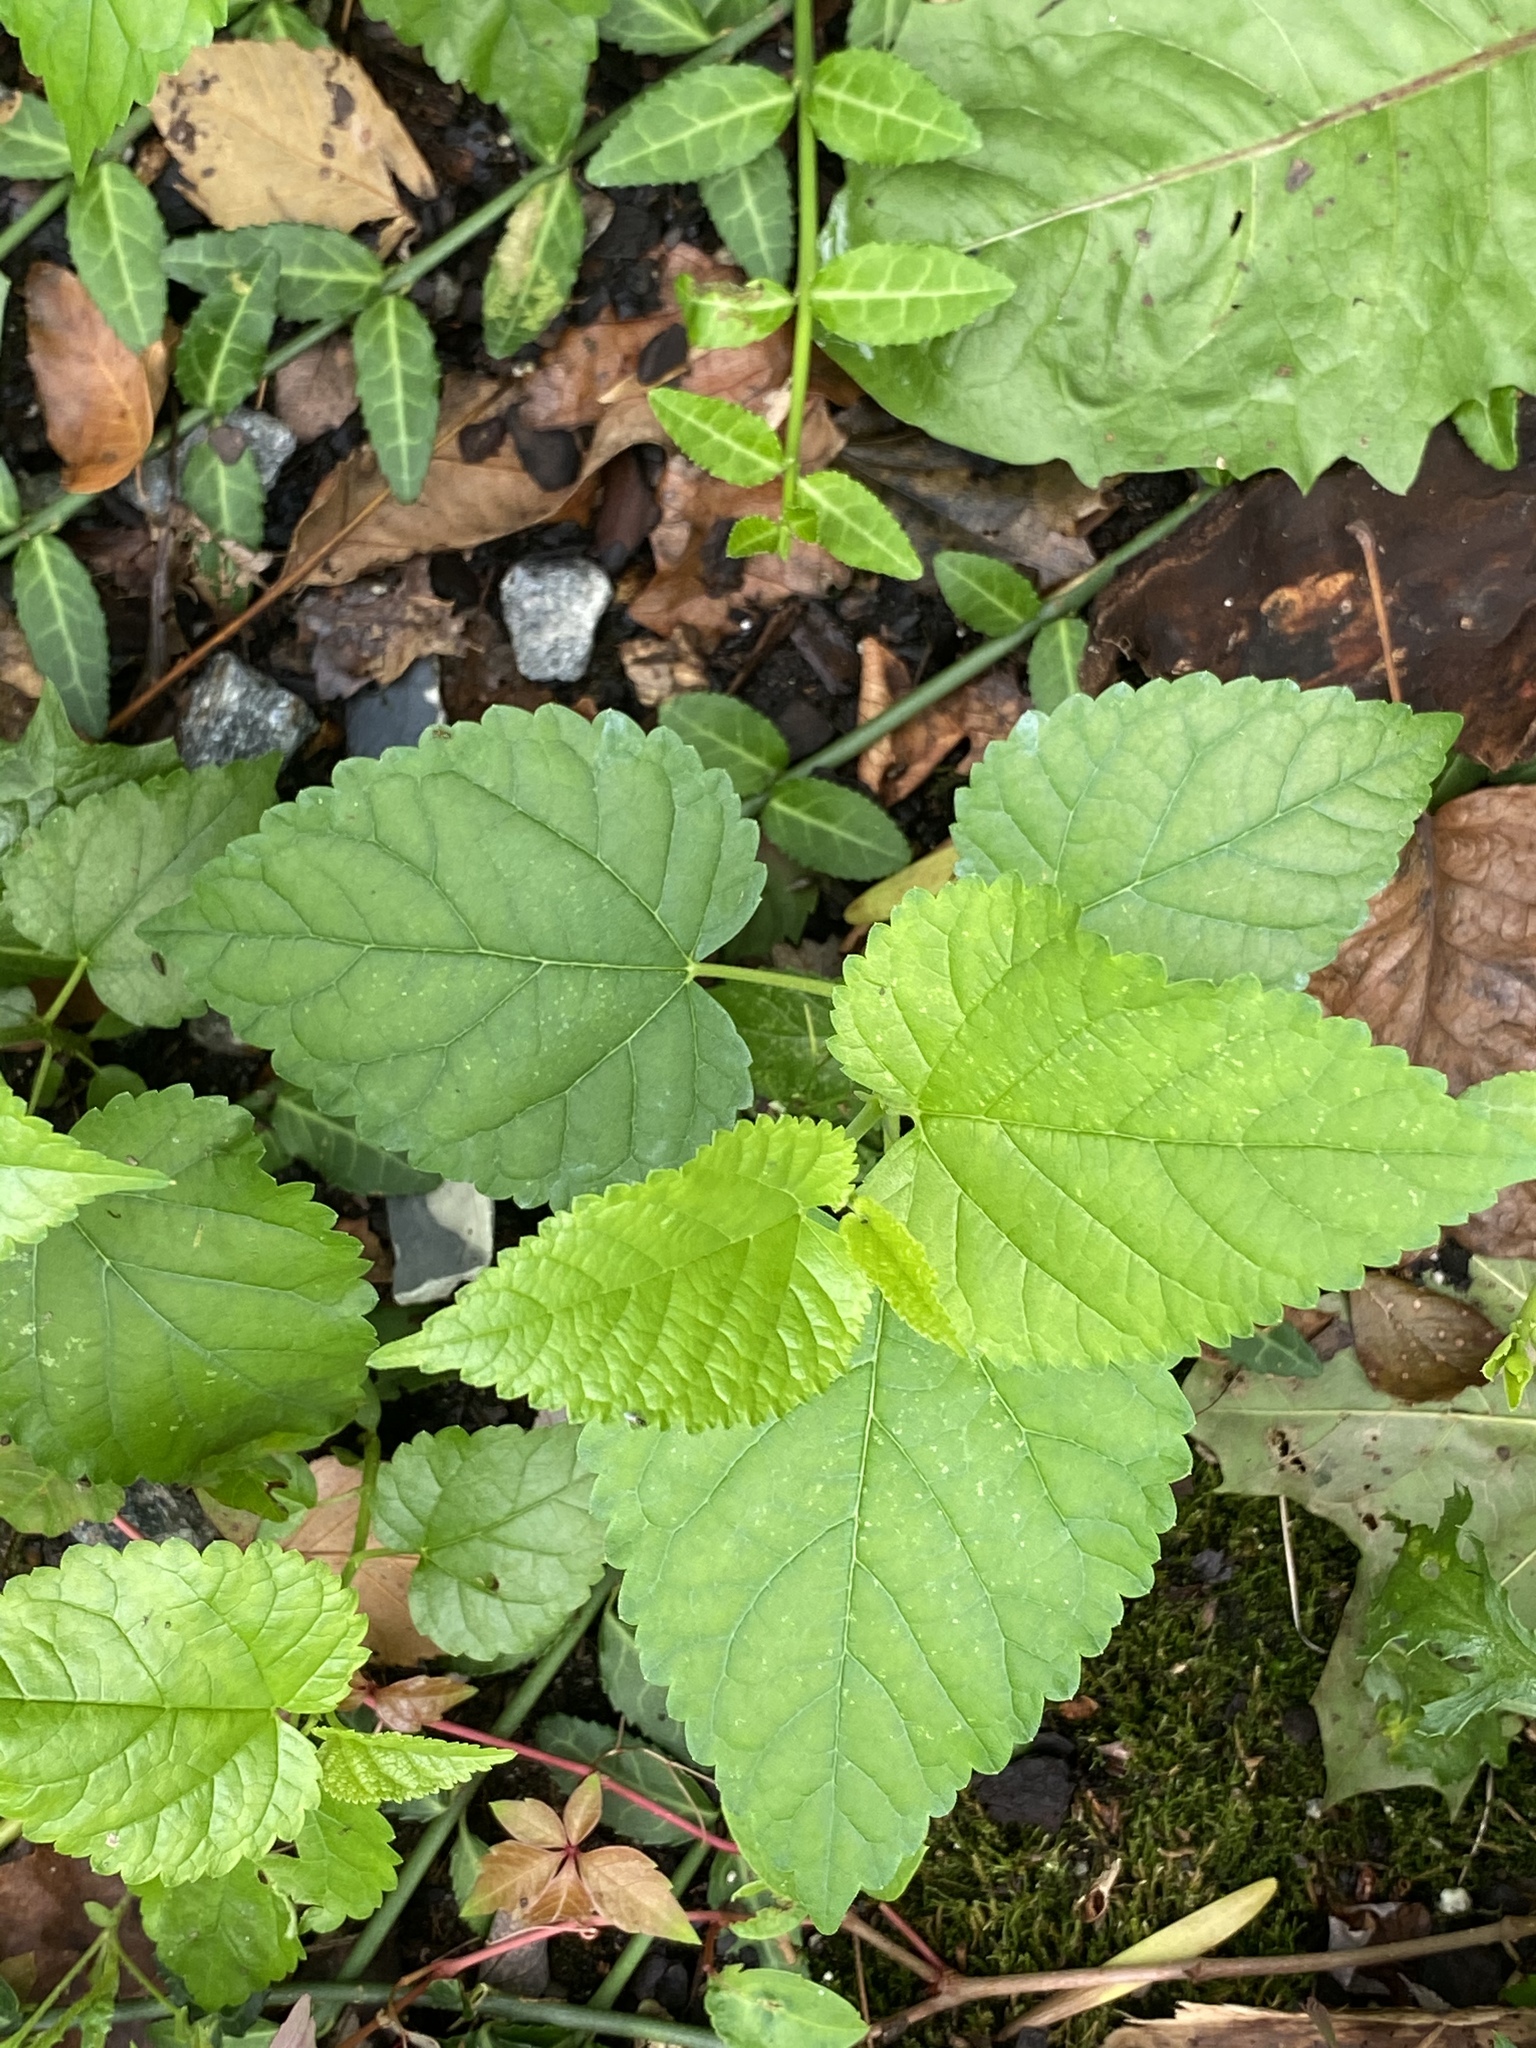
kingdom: Plantae
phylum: Tracheophyta
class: Magnoliopsida
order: Rosales
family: Moraceae
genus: Fatoua
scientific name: Fatoua villosa
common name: Hairy crabweed
